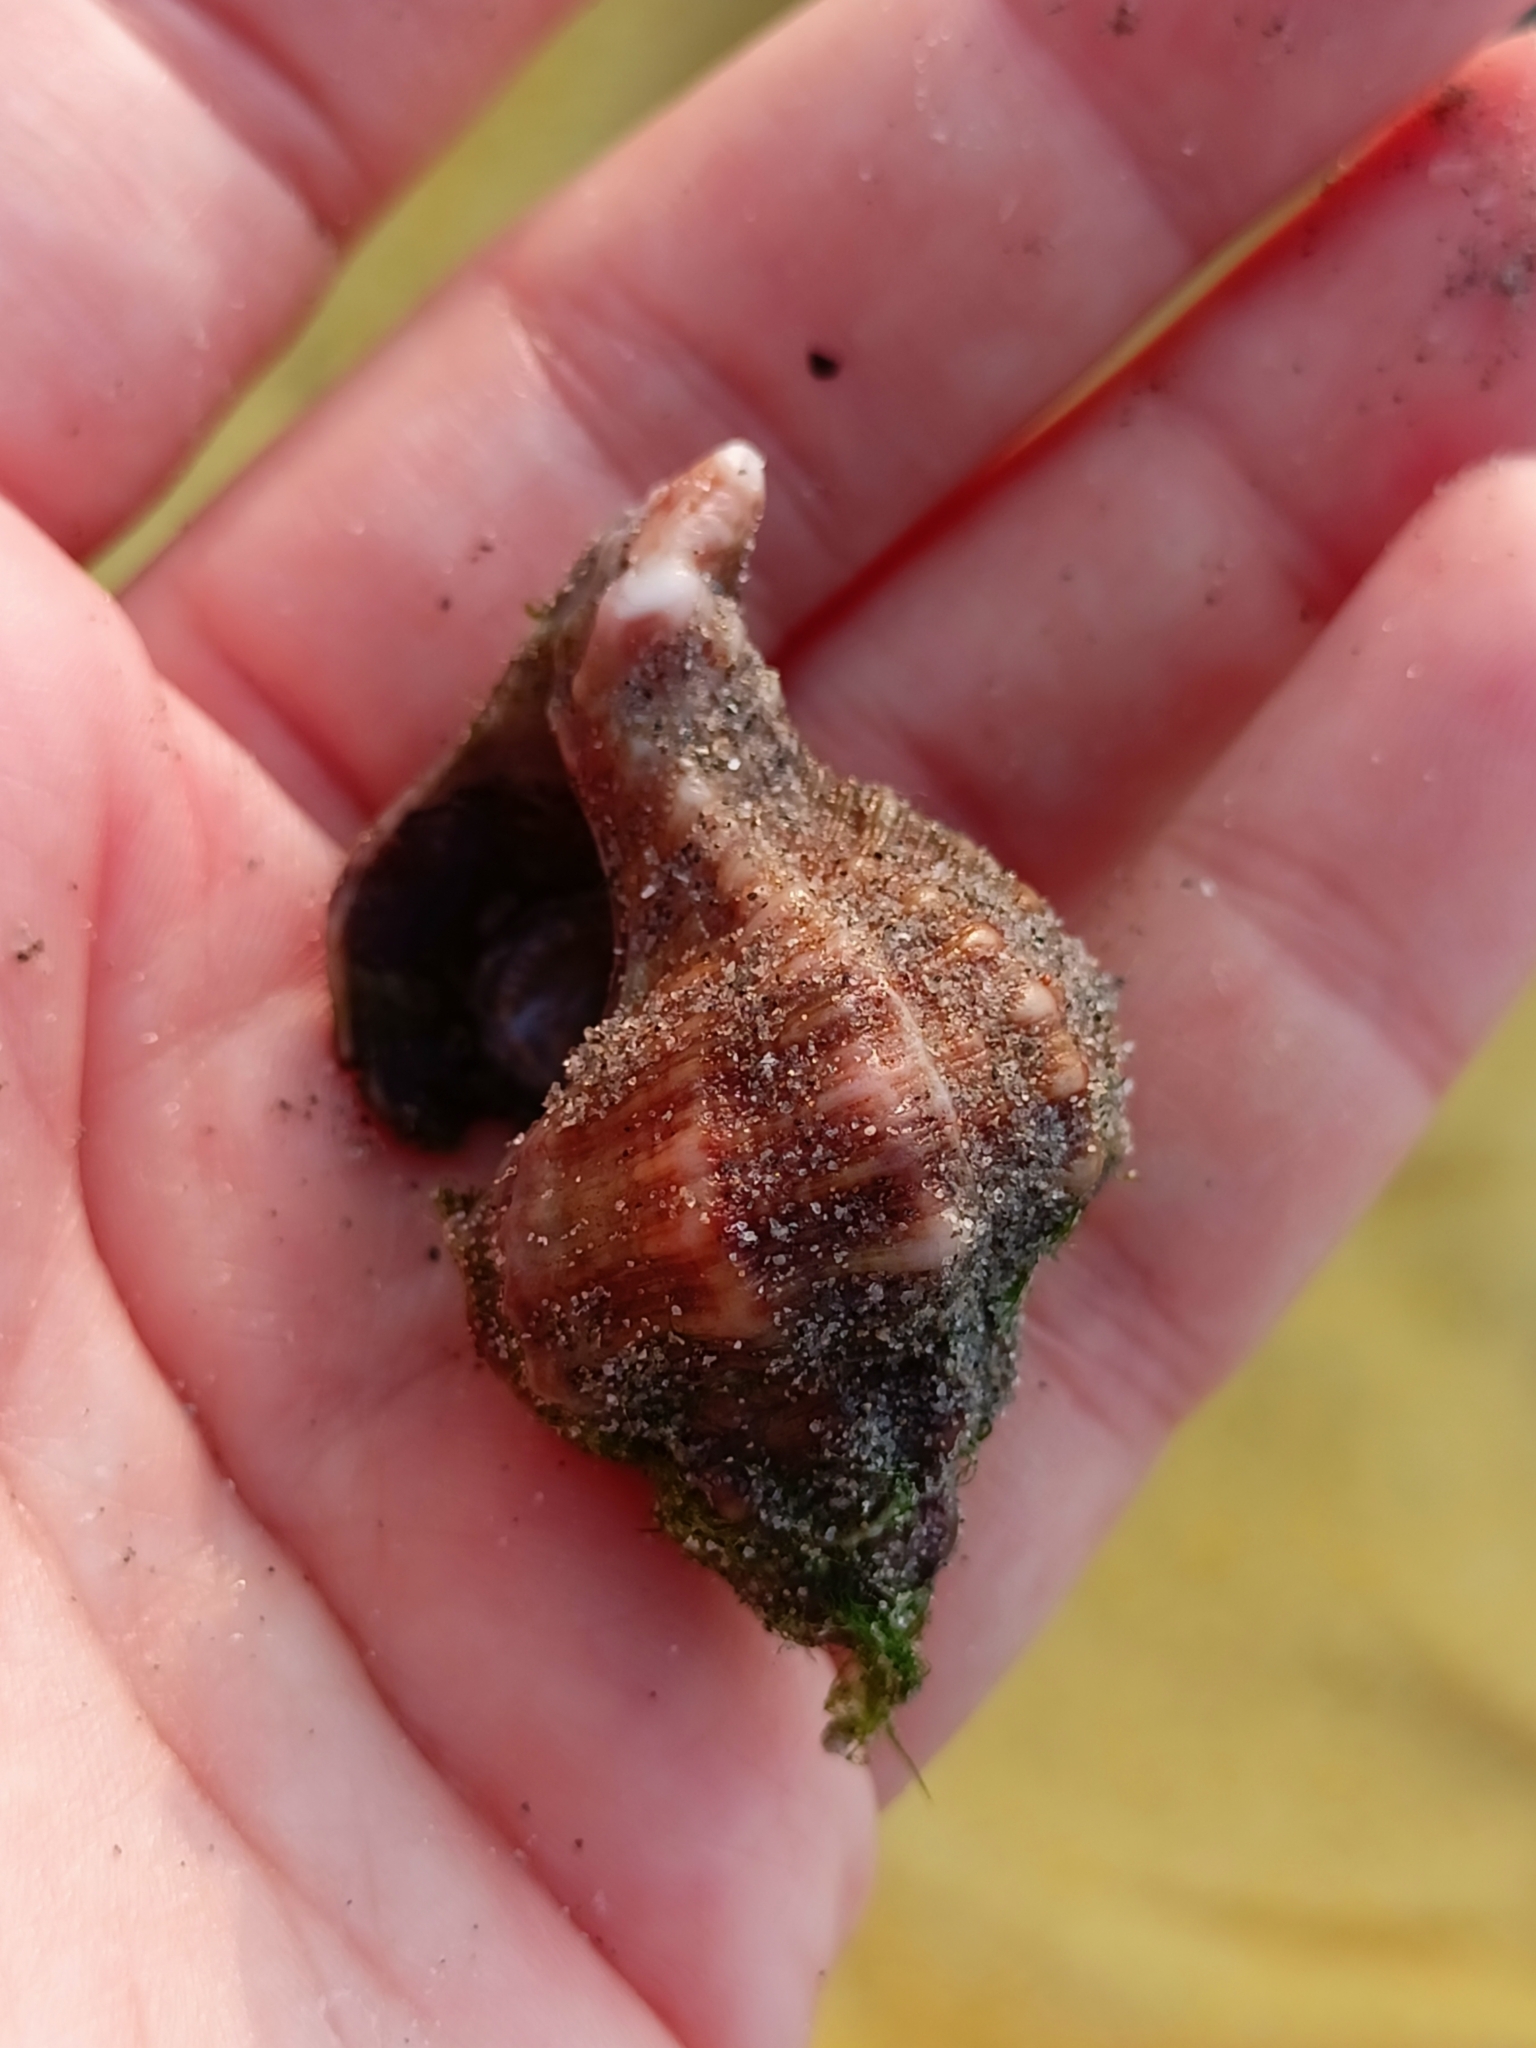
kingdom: Animalia
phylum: Mollusca
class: Gastropoda
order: Neogastropoda
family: Muricidae
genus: Hexaplex
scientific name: Hexaplex trunculus
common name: Banded dye-murex
